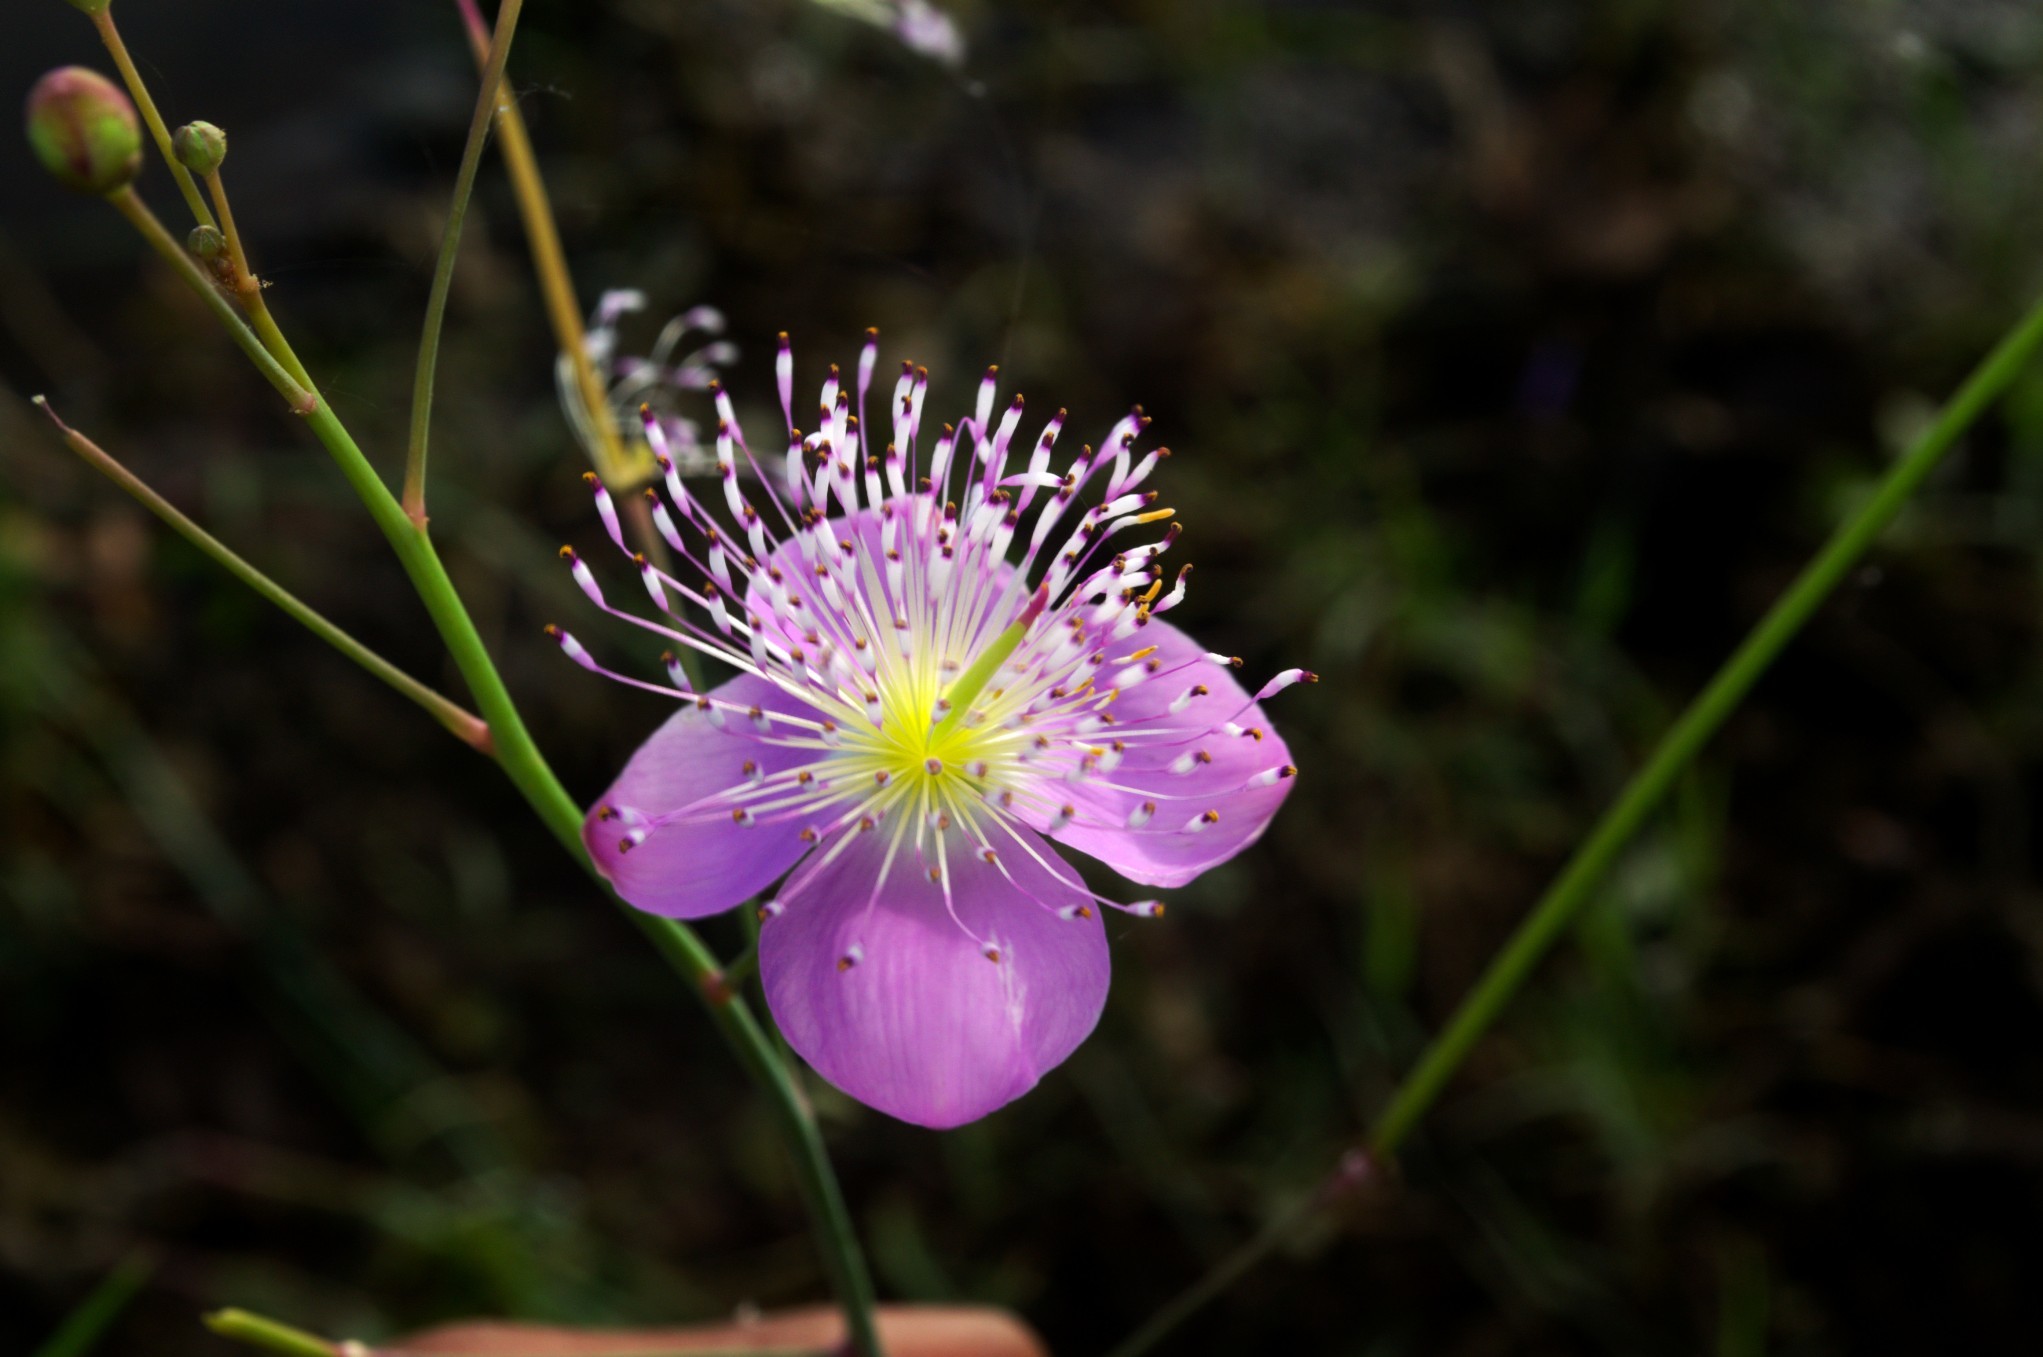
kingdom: Plantae
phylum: Tracheophyta
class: Magnoliopsida
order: Brassicales
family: Cleomaceae
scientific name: Cleomaceae
